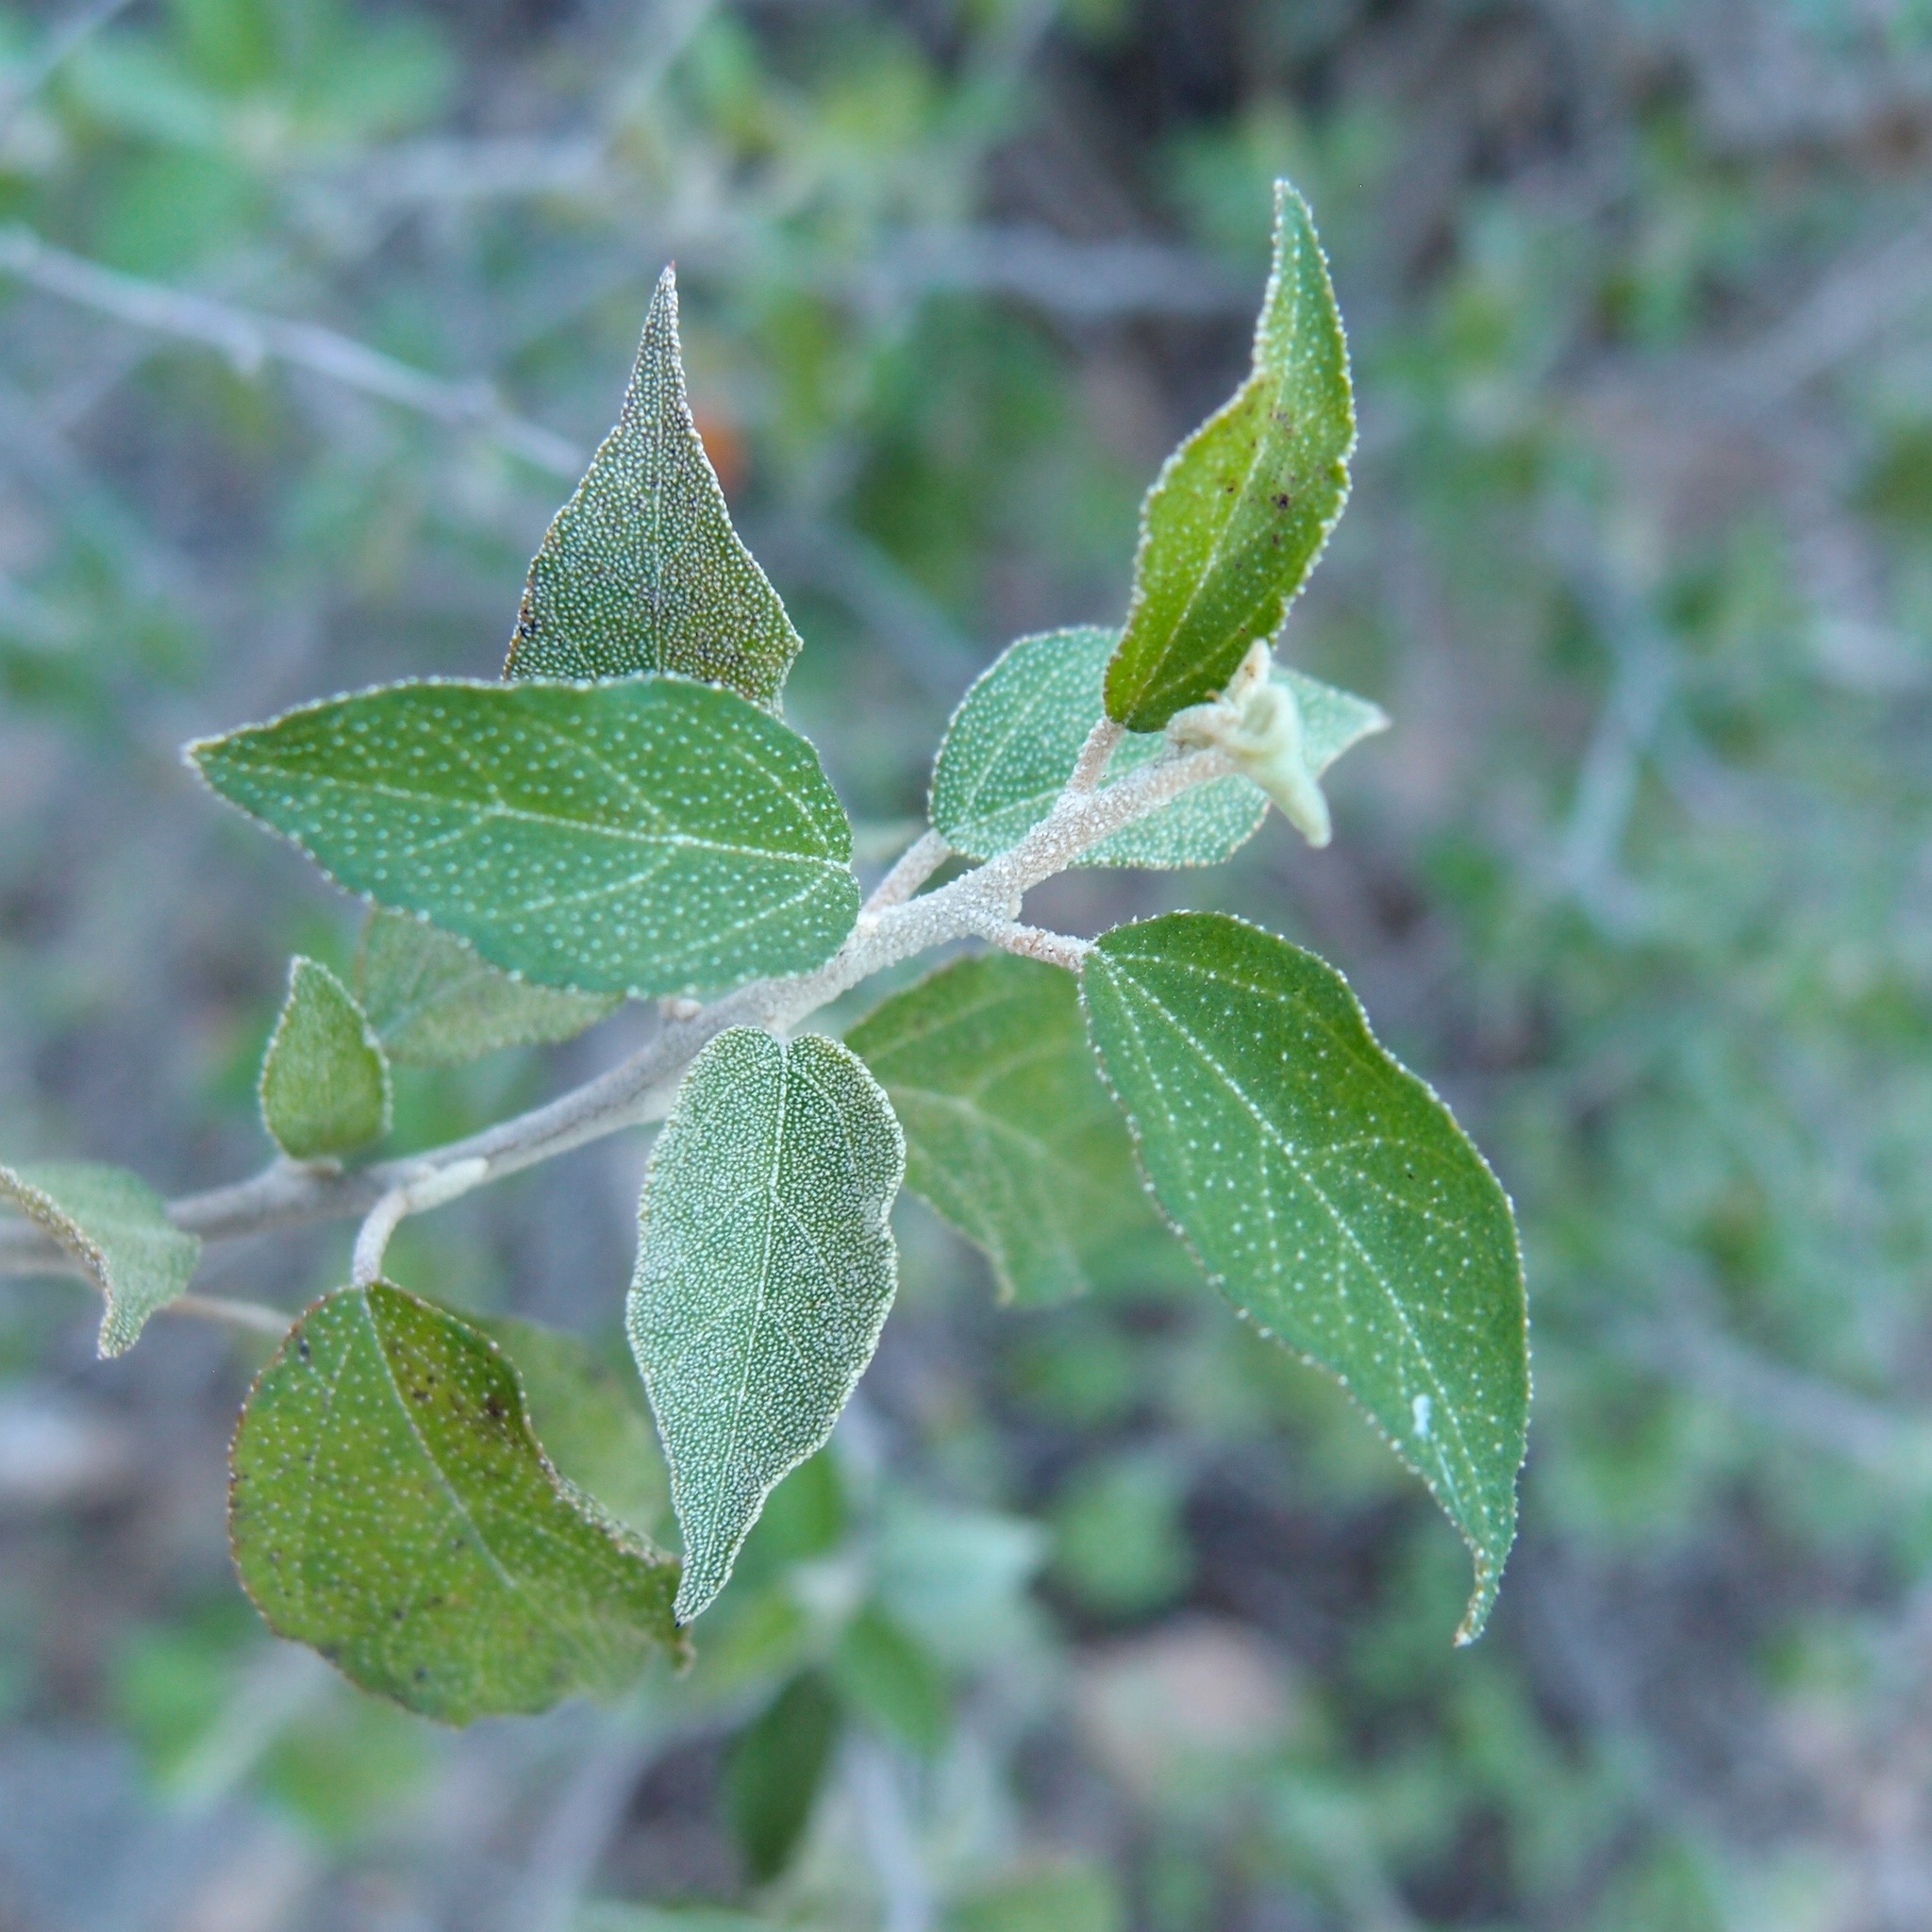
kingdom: Plantae
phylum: Tracheophyta
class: Magnoliopsida
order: Malpighiales
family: Euphorbiaceae
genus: Croton
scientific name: Croton sonorae
